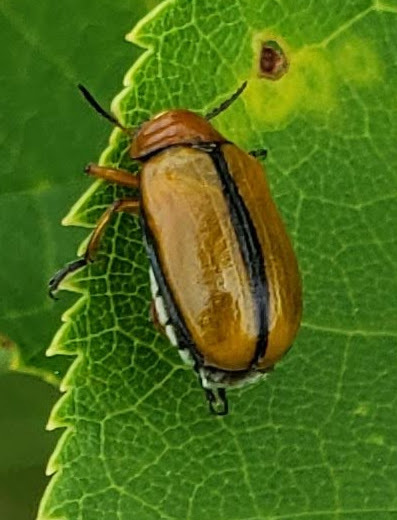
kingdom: Animalia
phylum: Arthropoda
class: Insecta
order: Coleoptera
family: Chrysomelidae
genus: Anomoea
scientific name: Anomoea laticlavia
